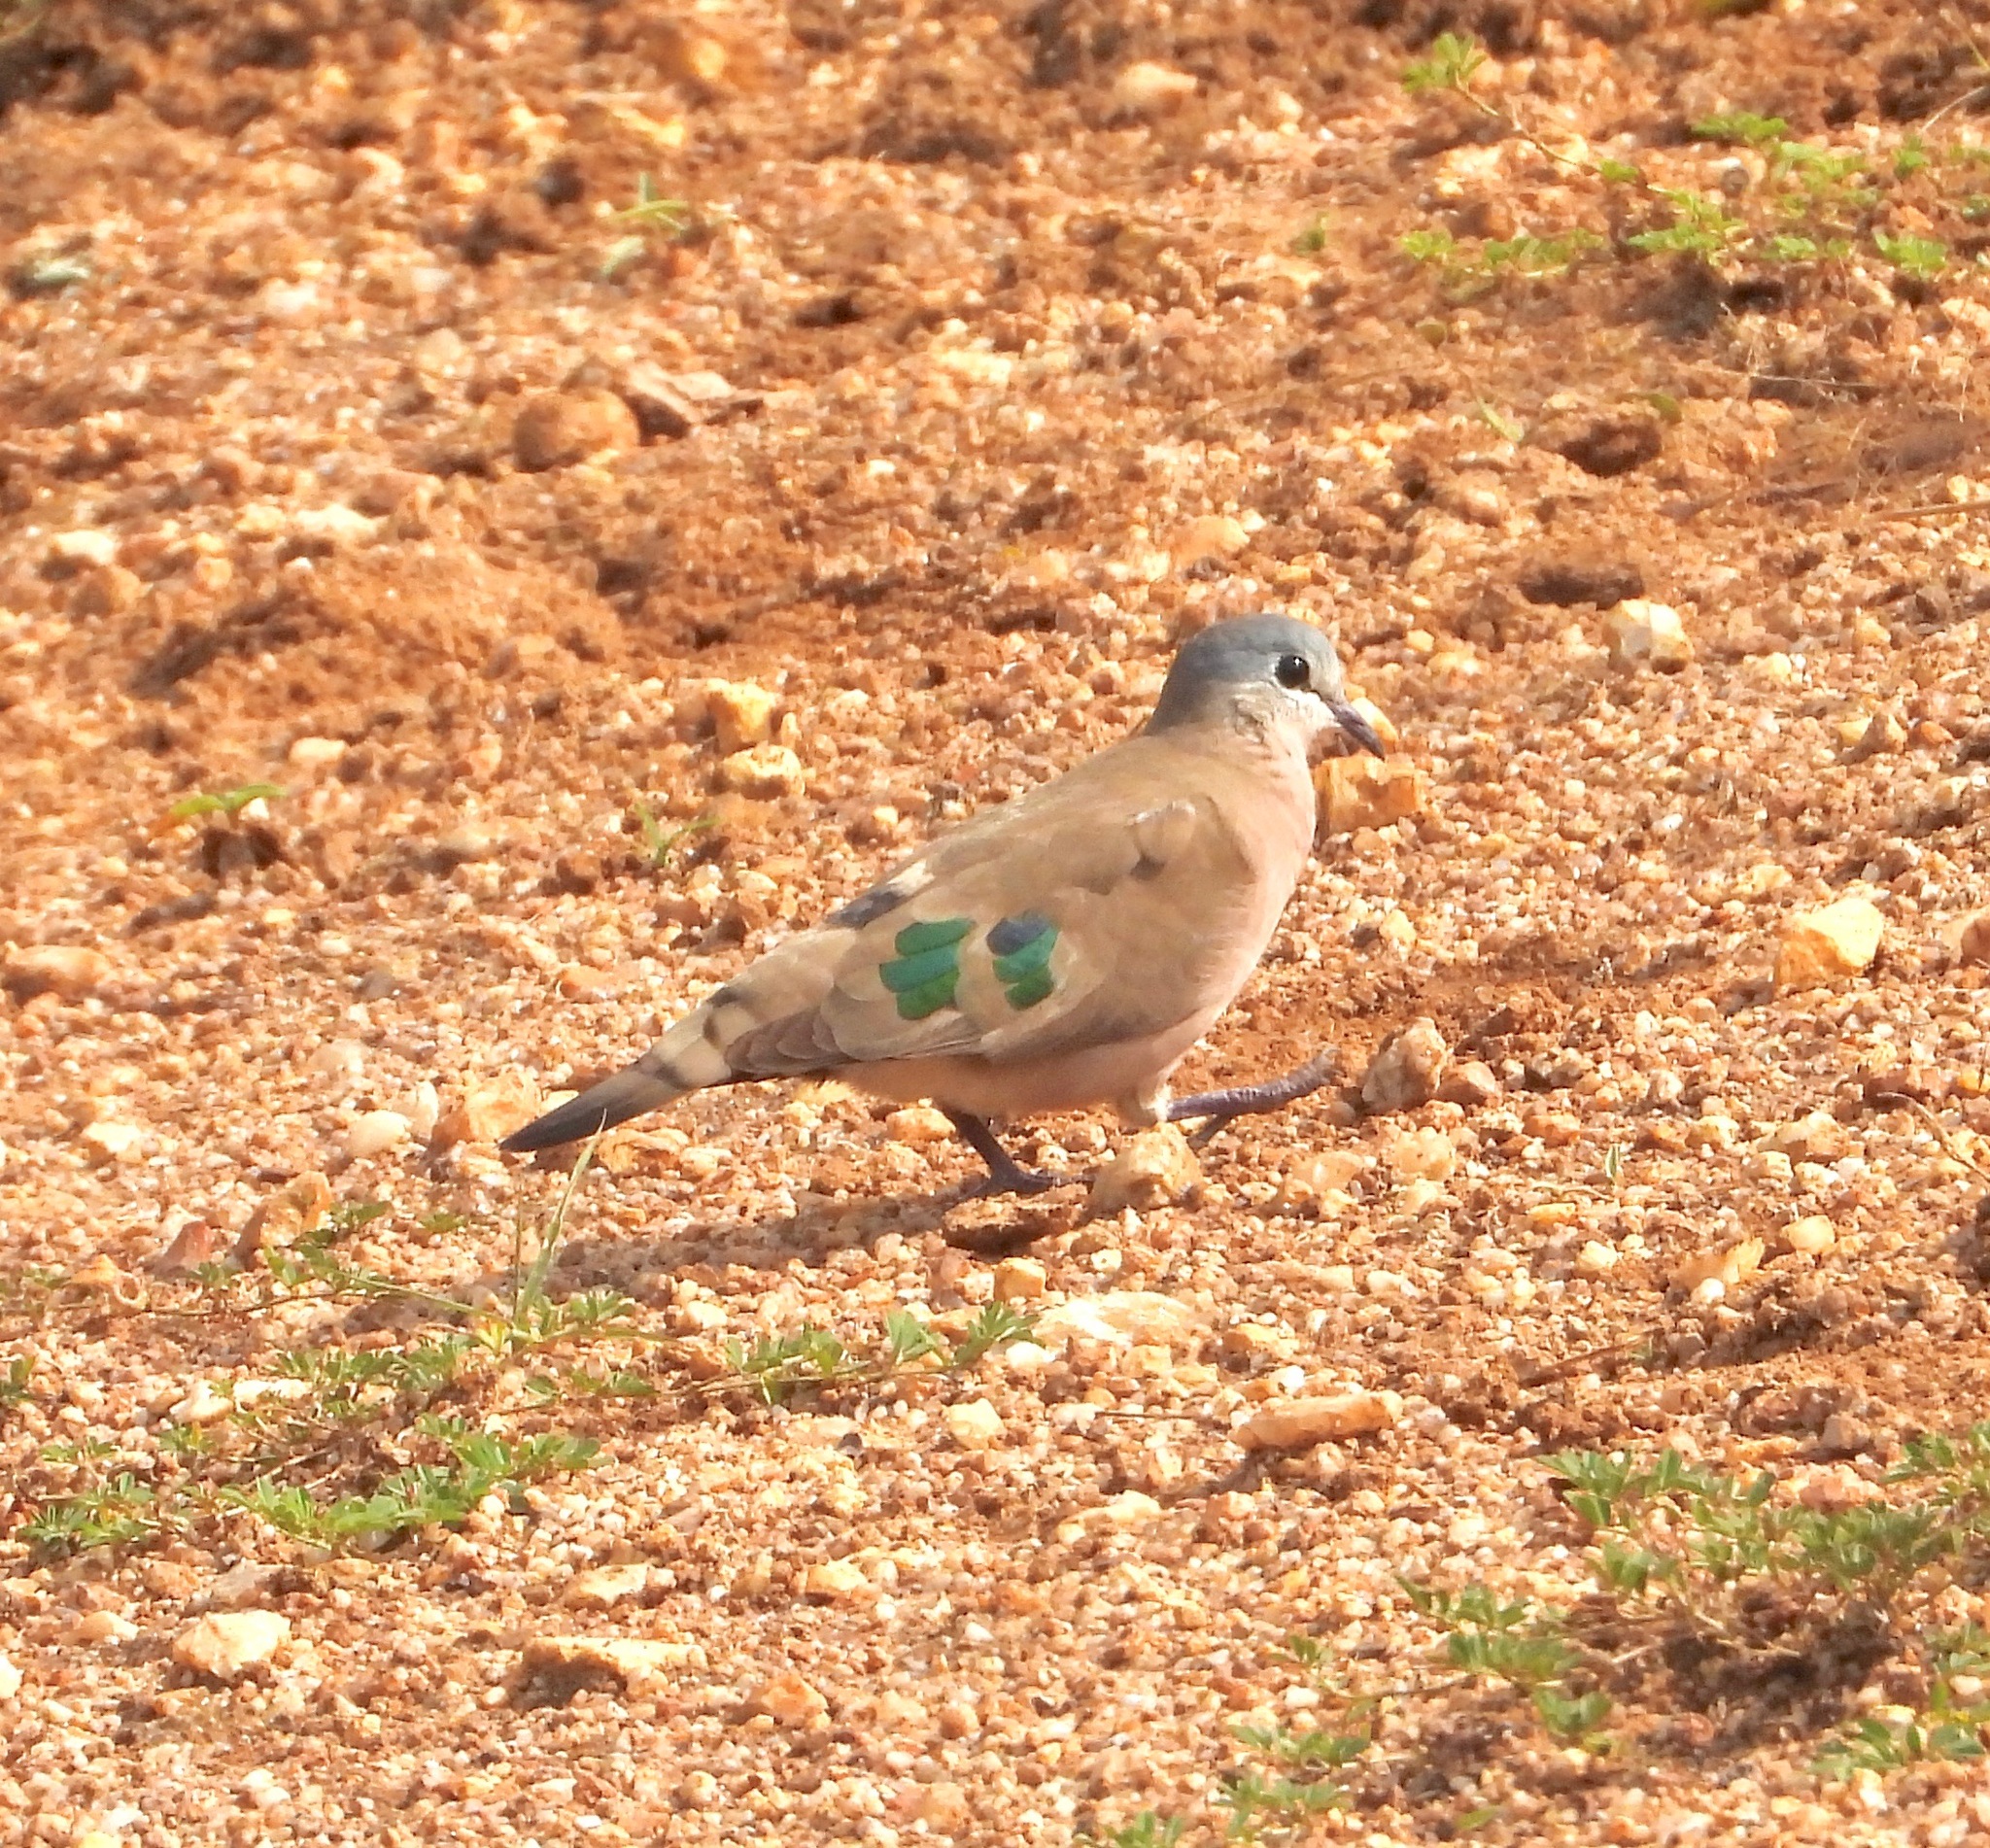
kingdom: Animalia
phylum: Chordata
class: Aves
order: Columbiformes
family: Columbidae
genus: Turtur
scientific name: Turtur chalcospilos
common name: Emerald-spotted wood dove
